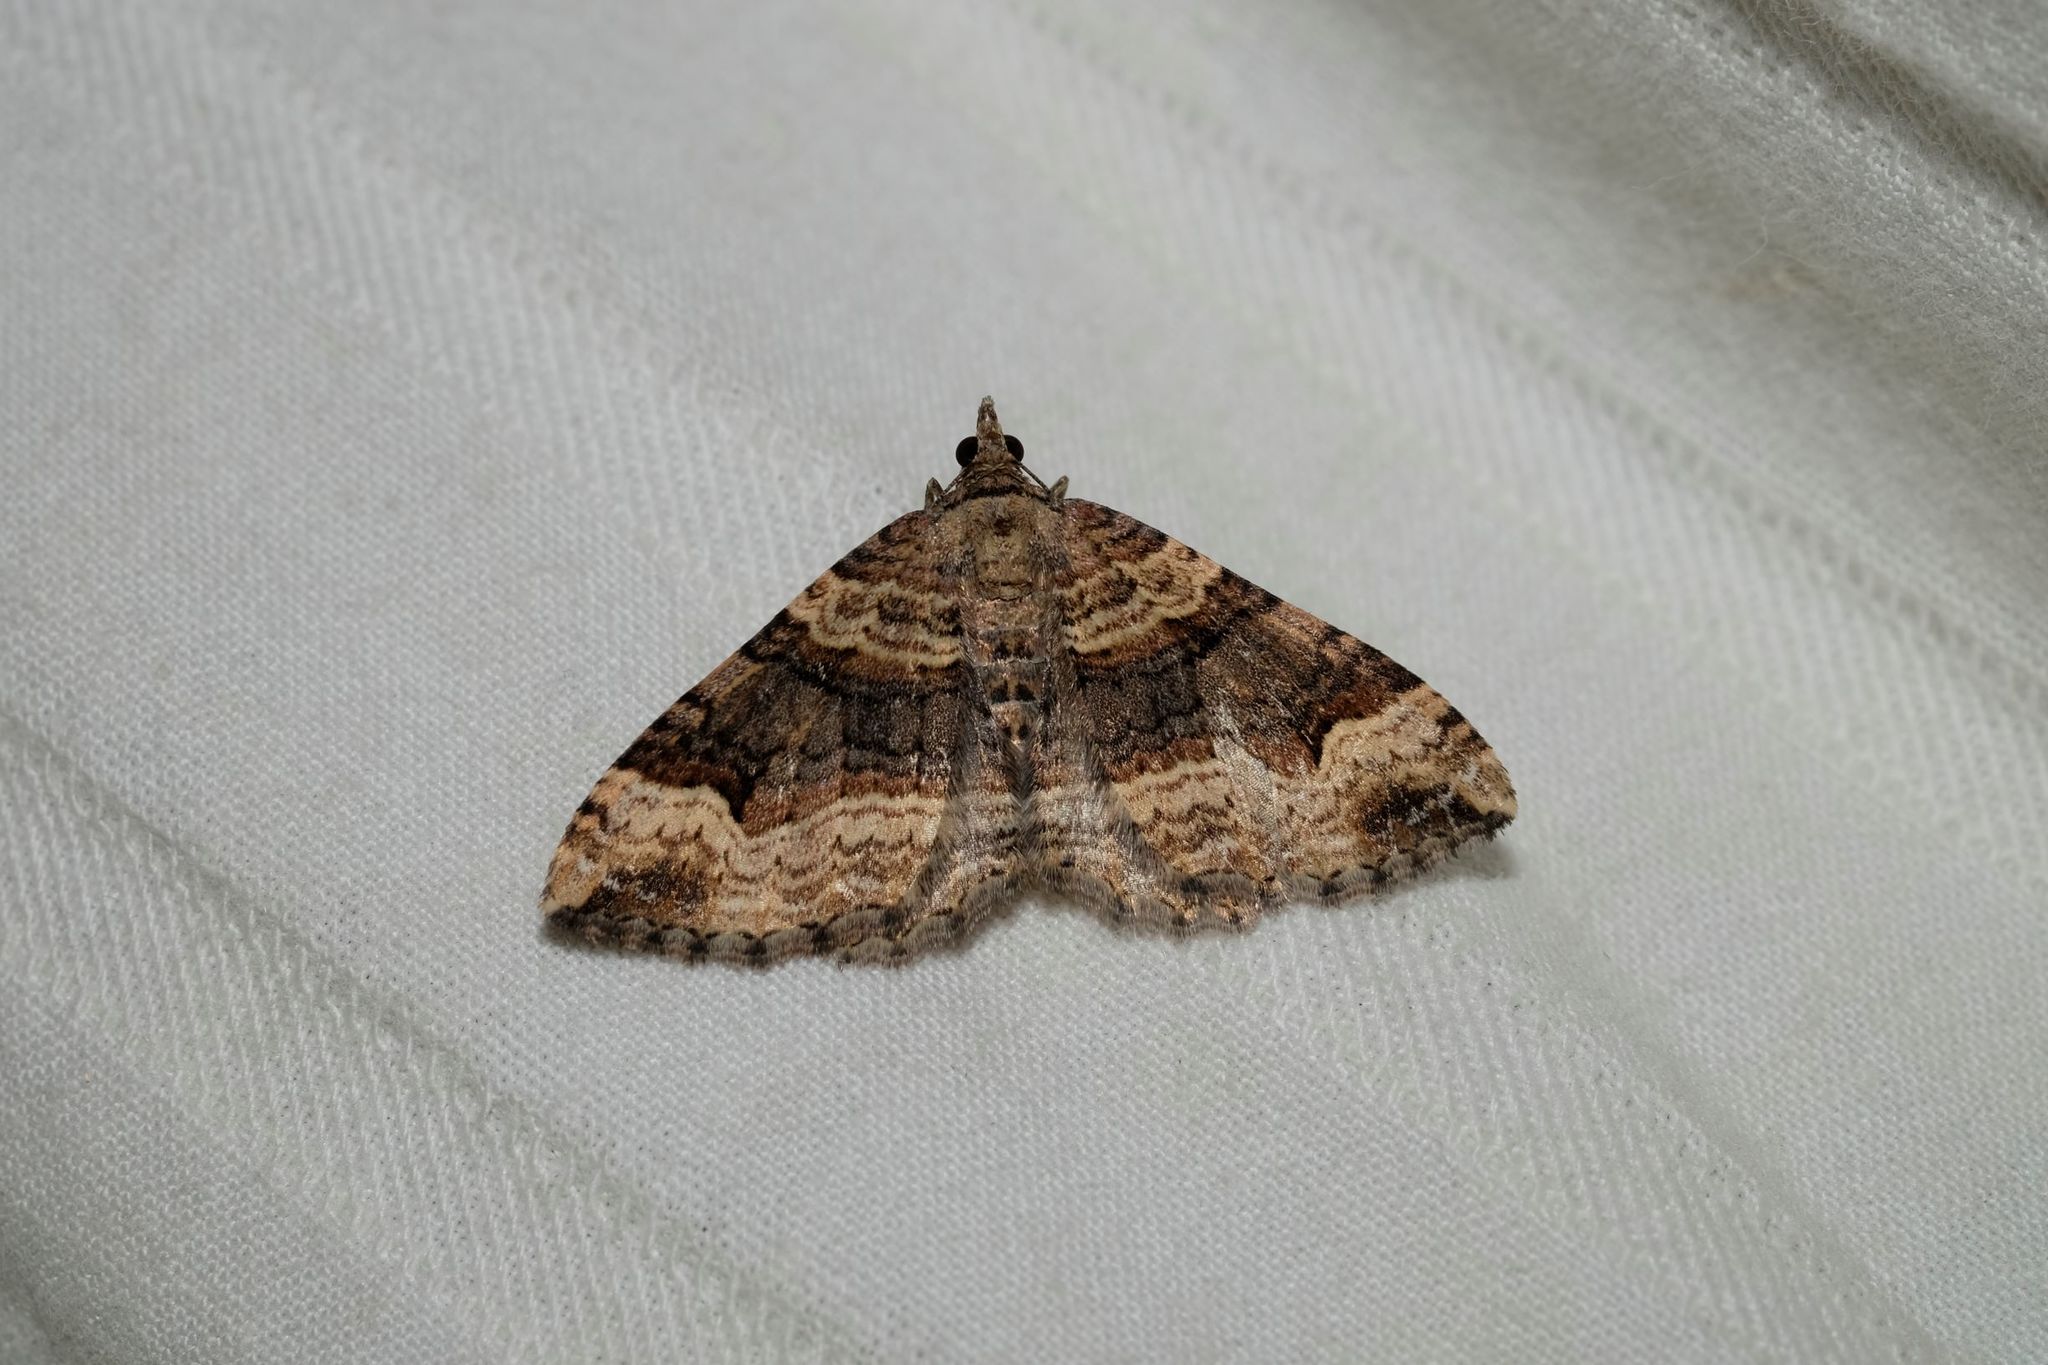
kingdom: Animalia
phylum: Arthropoda
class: Insecta
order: Lepidoptera
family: Geometridae
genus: Epyaxa
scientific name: Epyaxa subidaria
